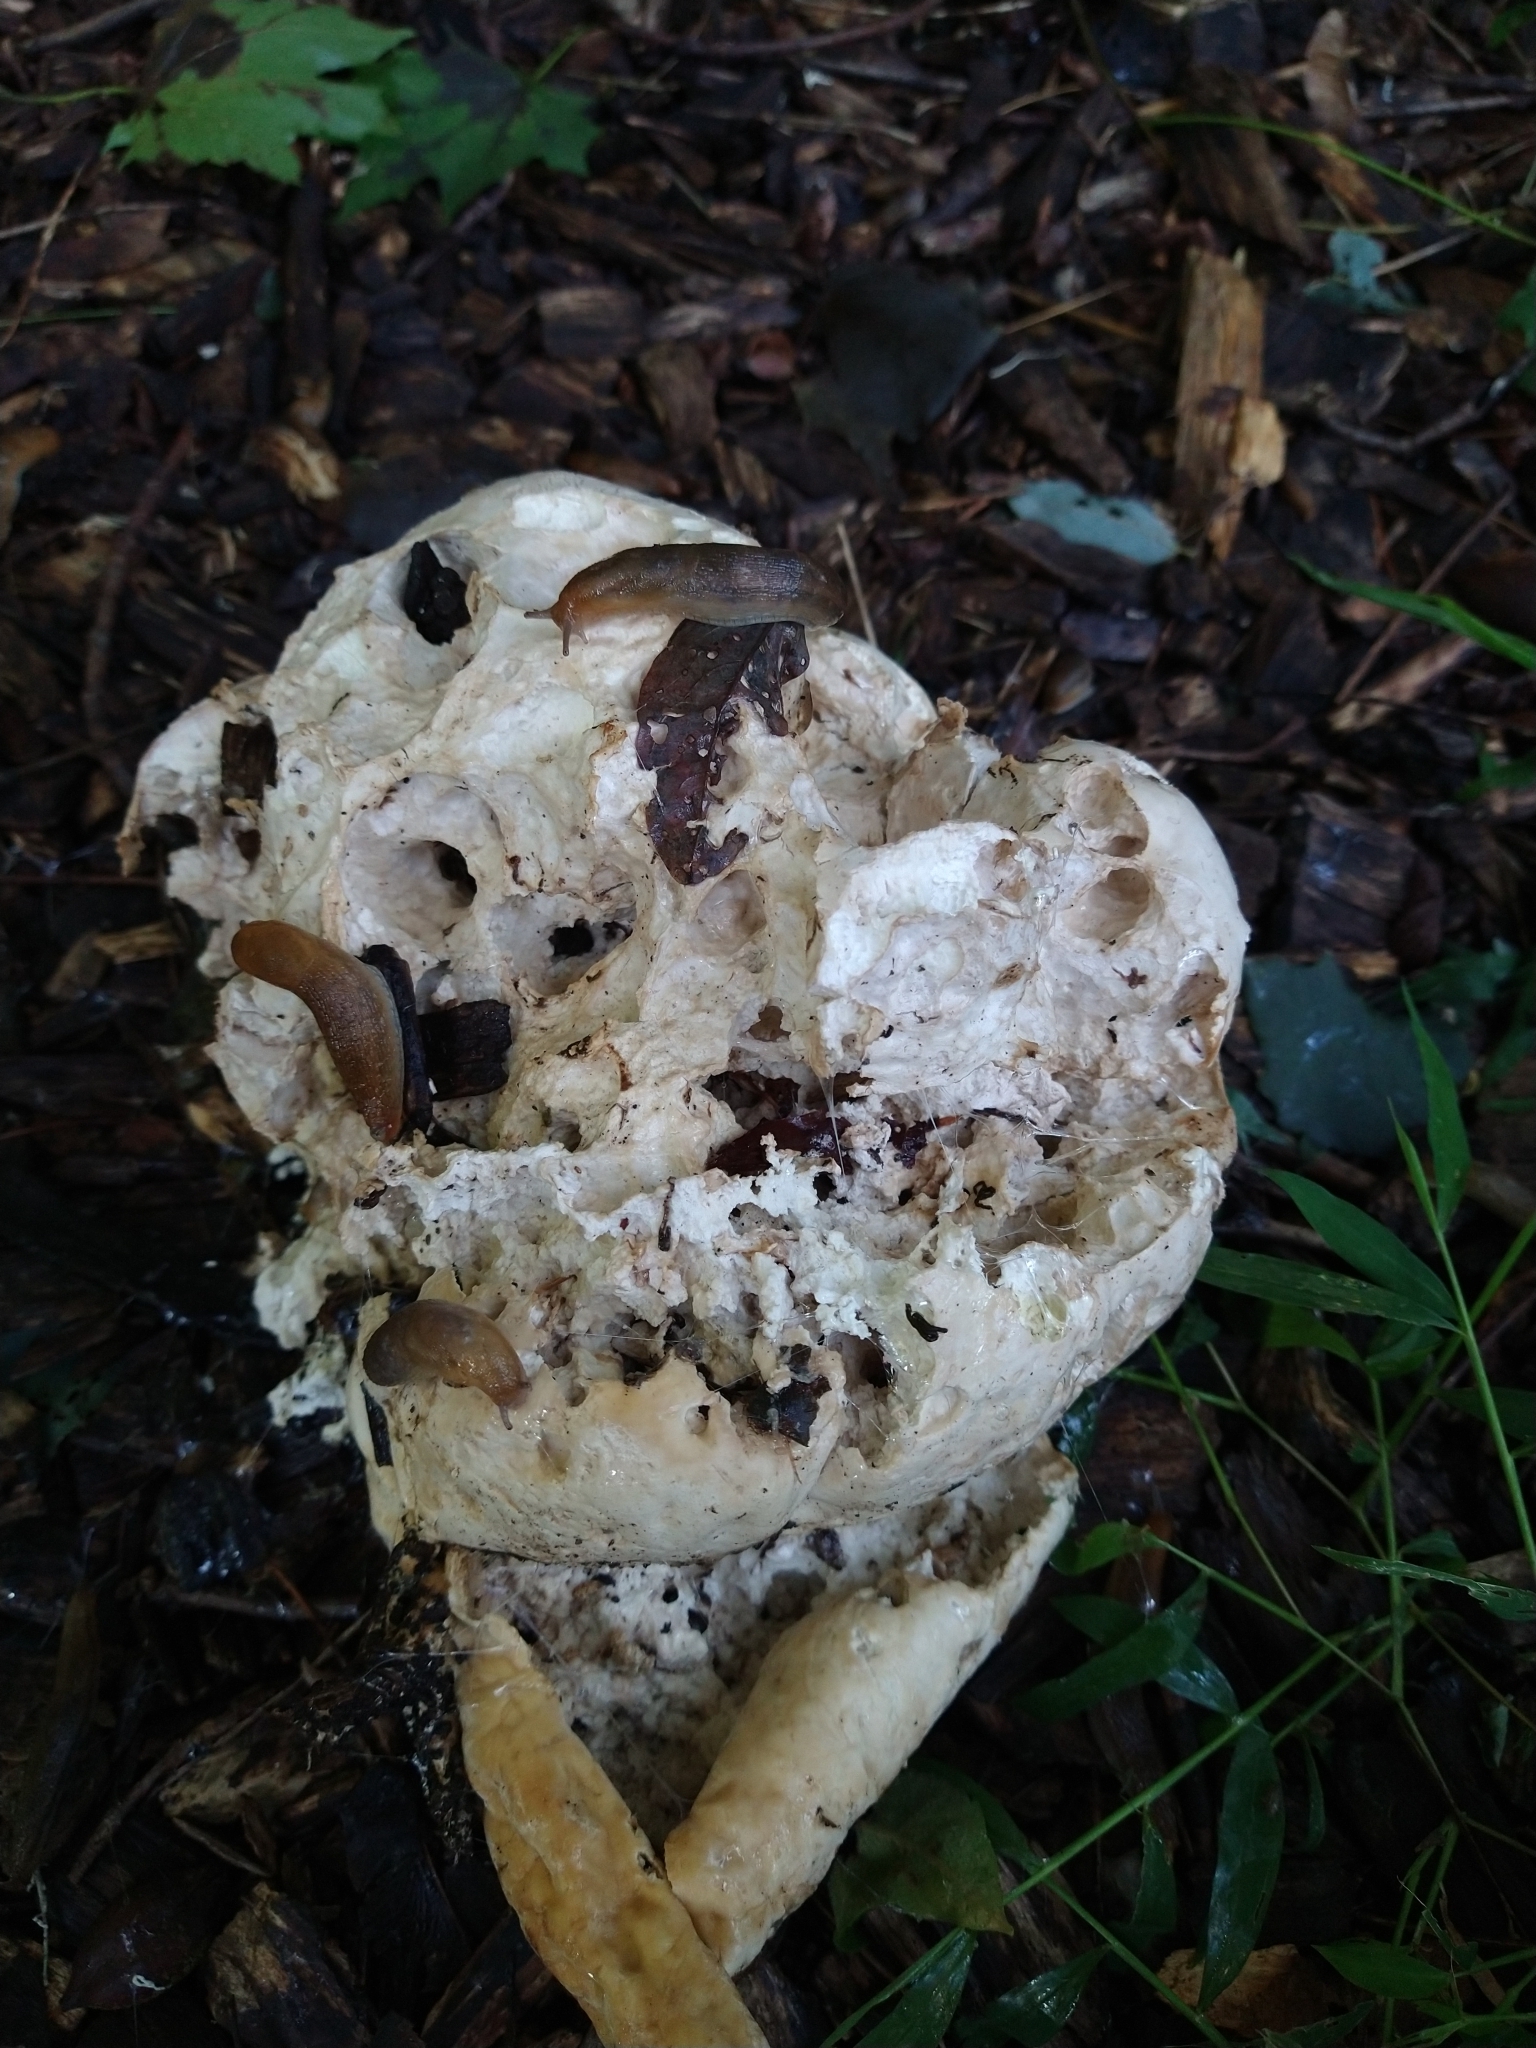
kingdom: Fungi
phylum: Basidiomycota
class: Agaricomycetes
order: Agaricales
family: Lycoperdaceae
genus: Calvatia
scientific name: Calvatia gigantea
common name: Giant puffball
